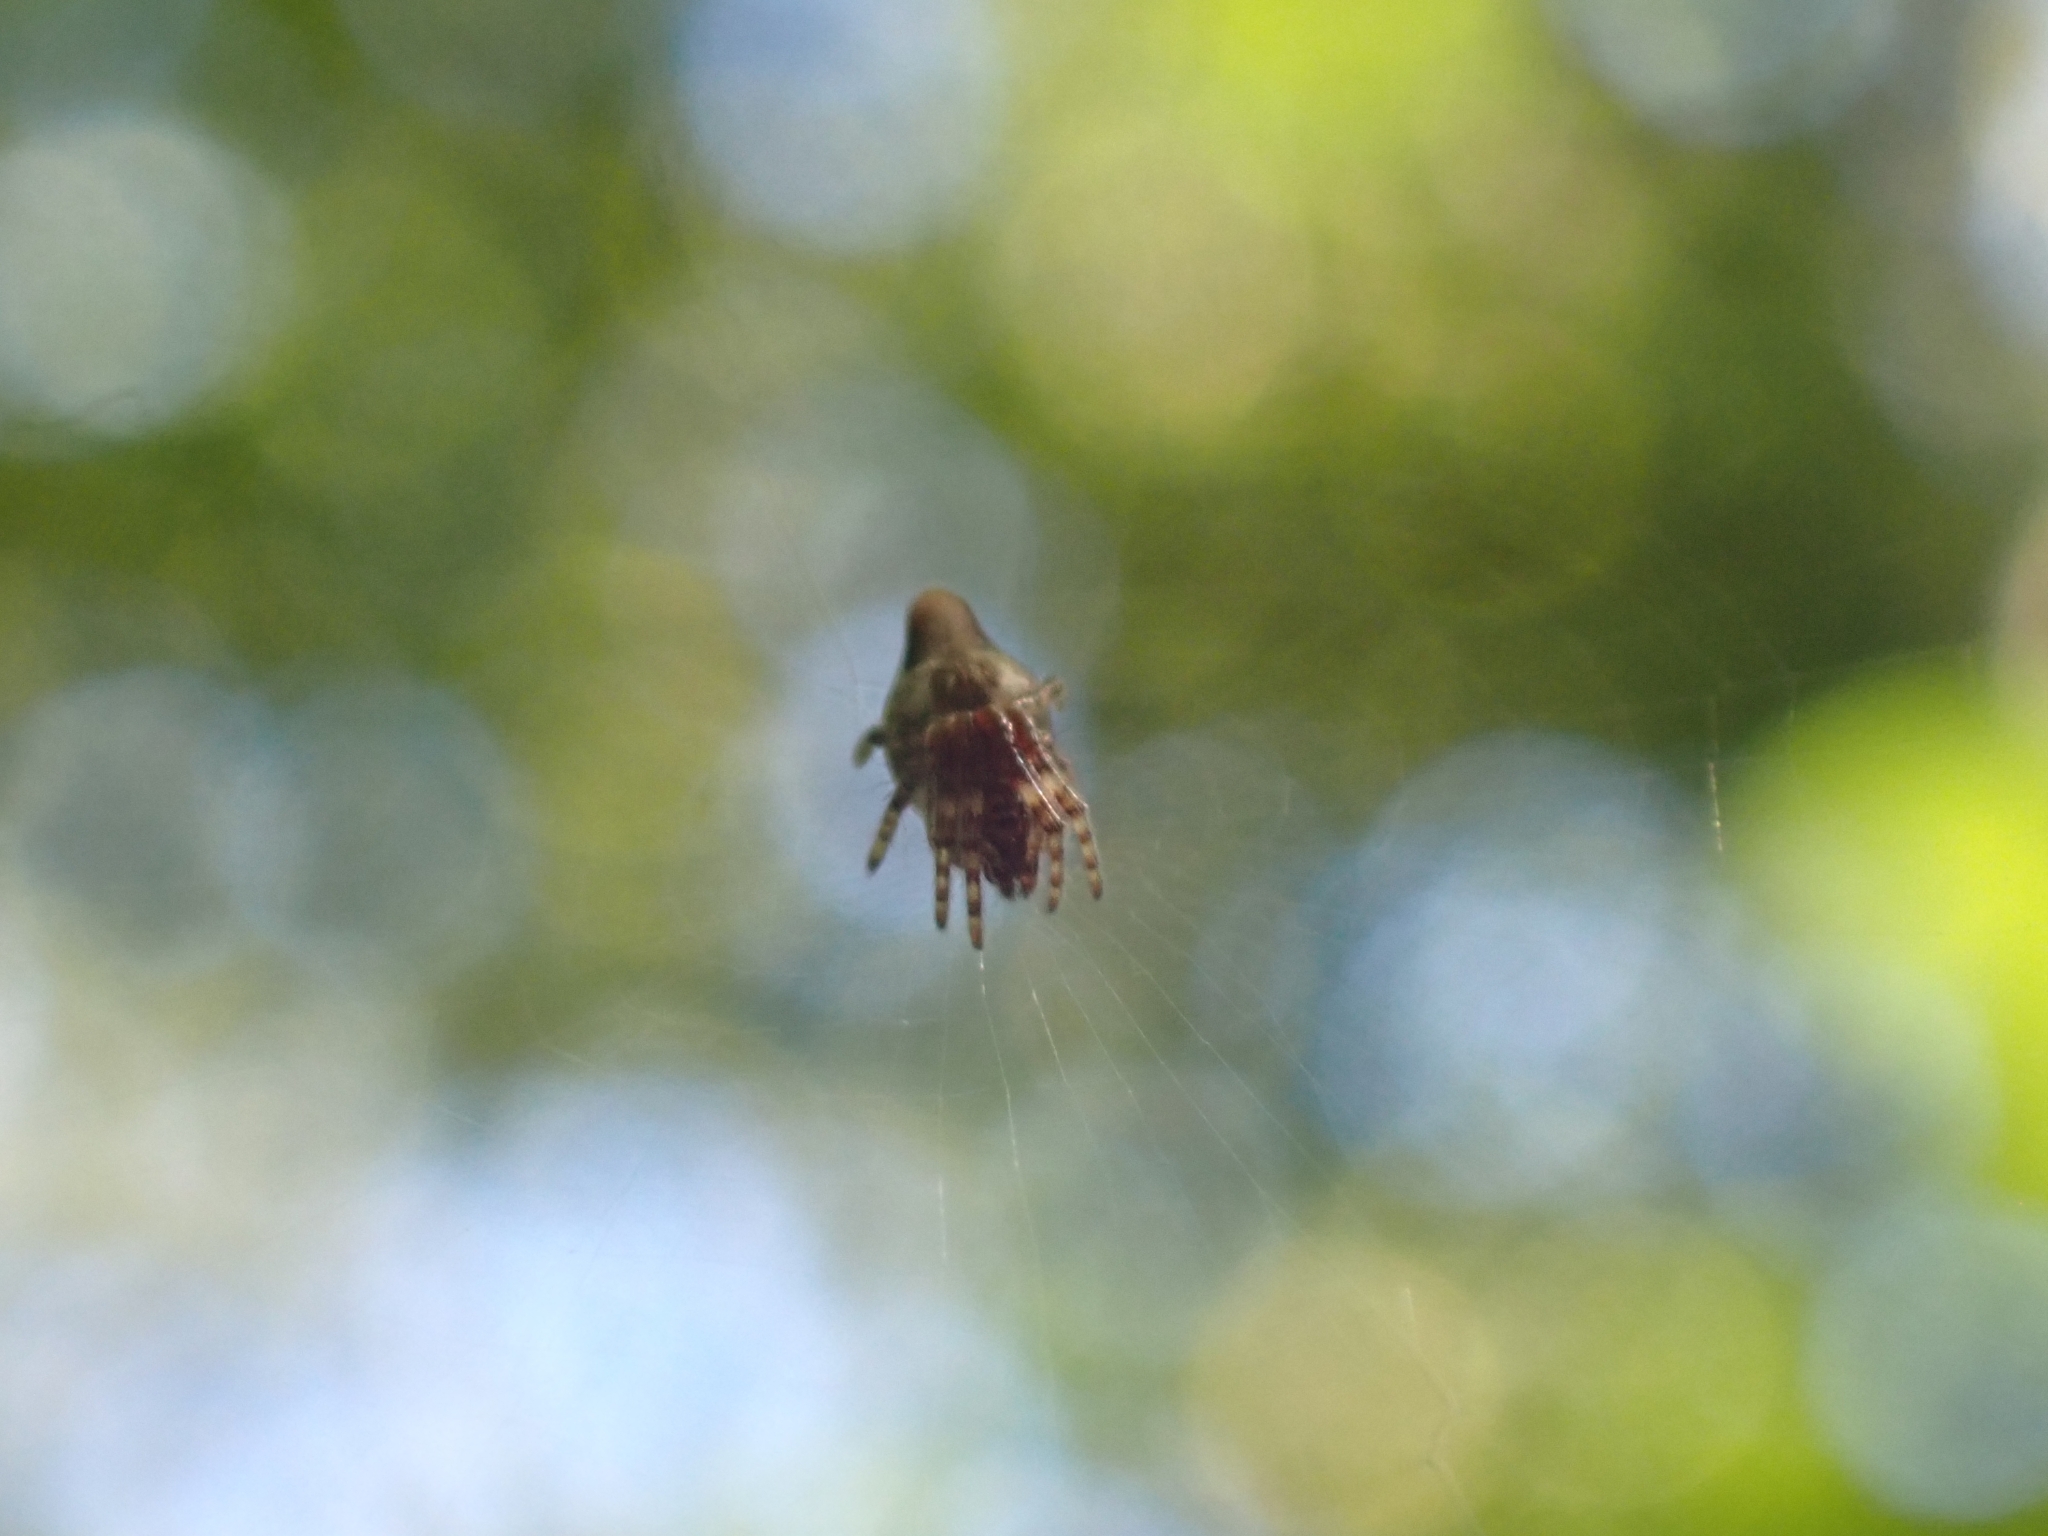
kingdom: Animalia
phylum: Arthropoda
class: Arachnida
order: Araneae
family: Araneidae
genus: Cyclosa
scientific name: Cyclosa conica
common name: Conical trashline orbweaver
